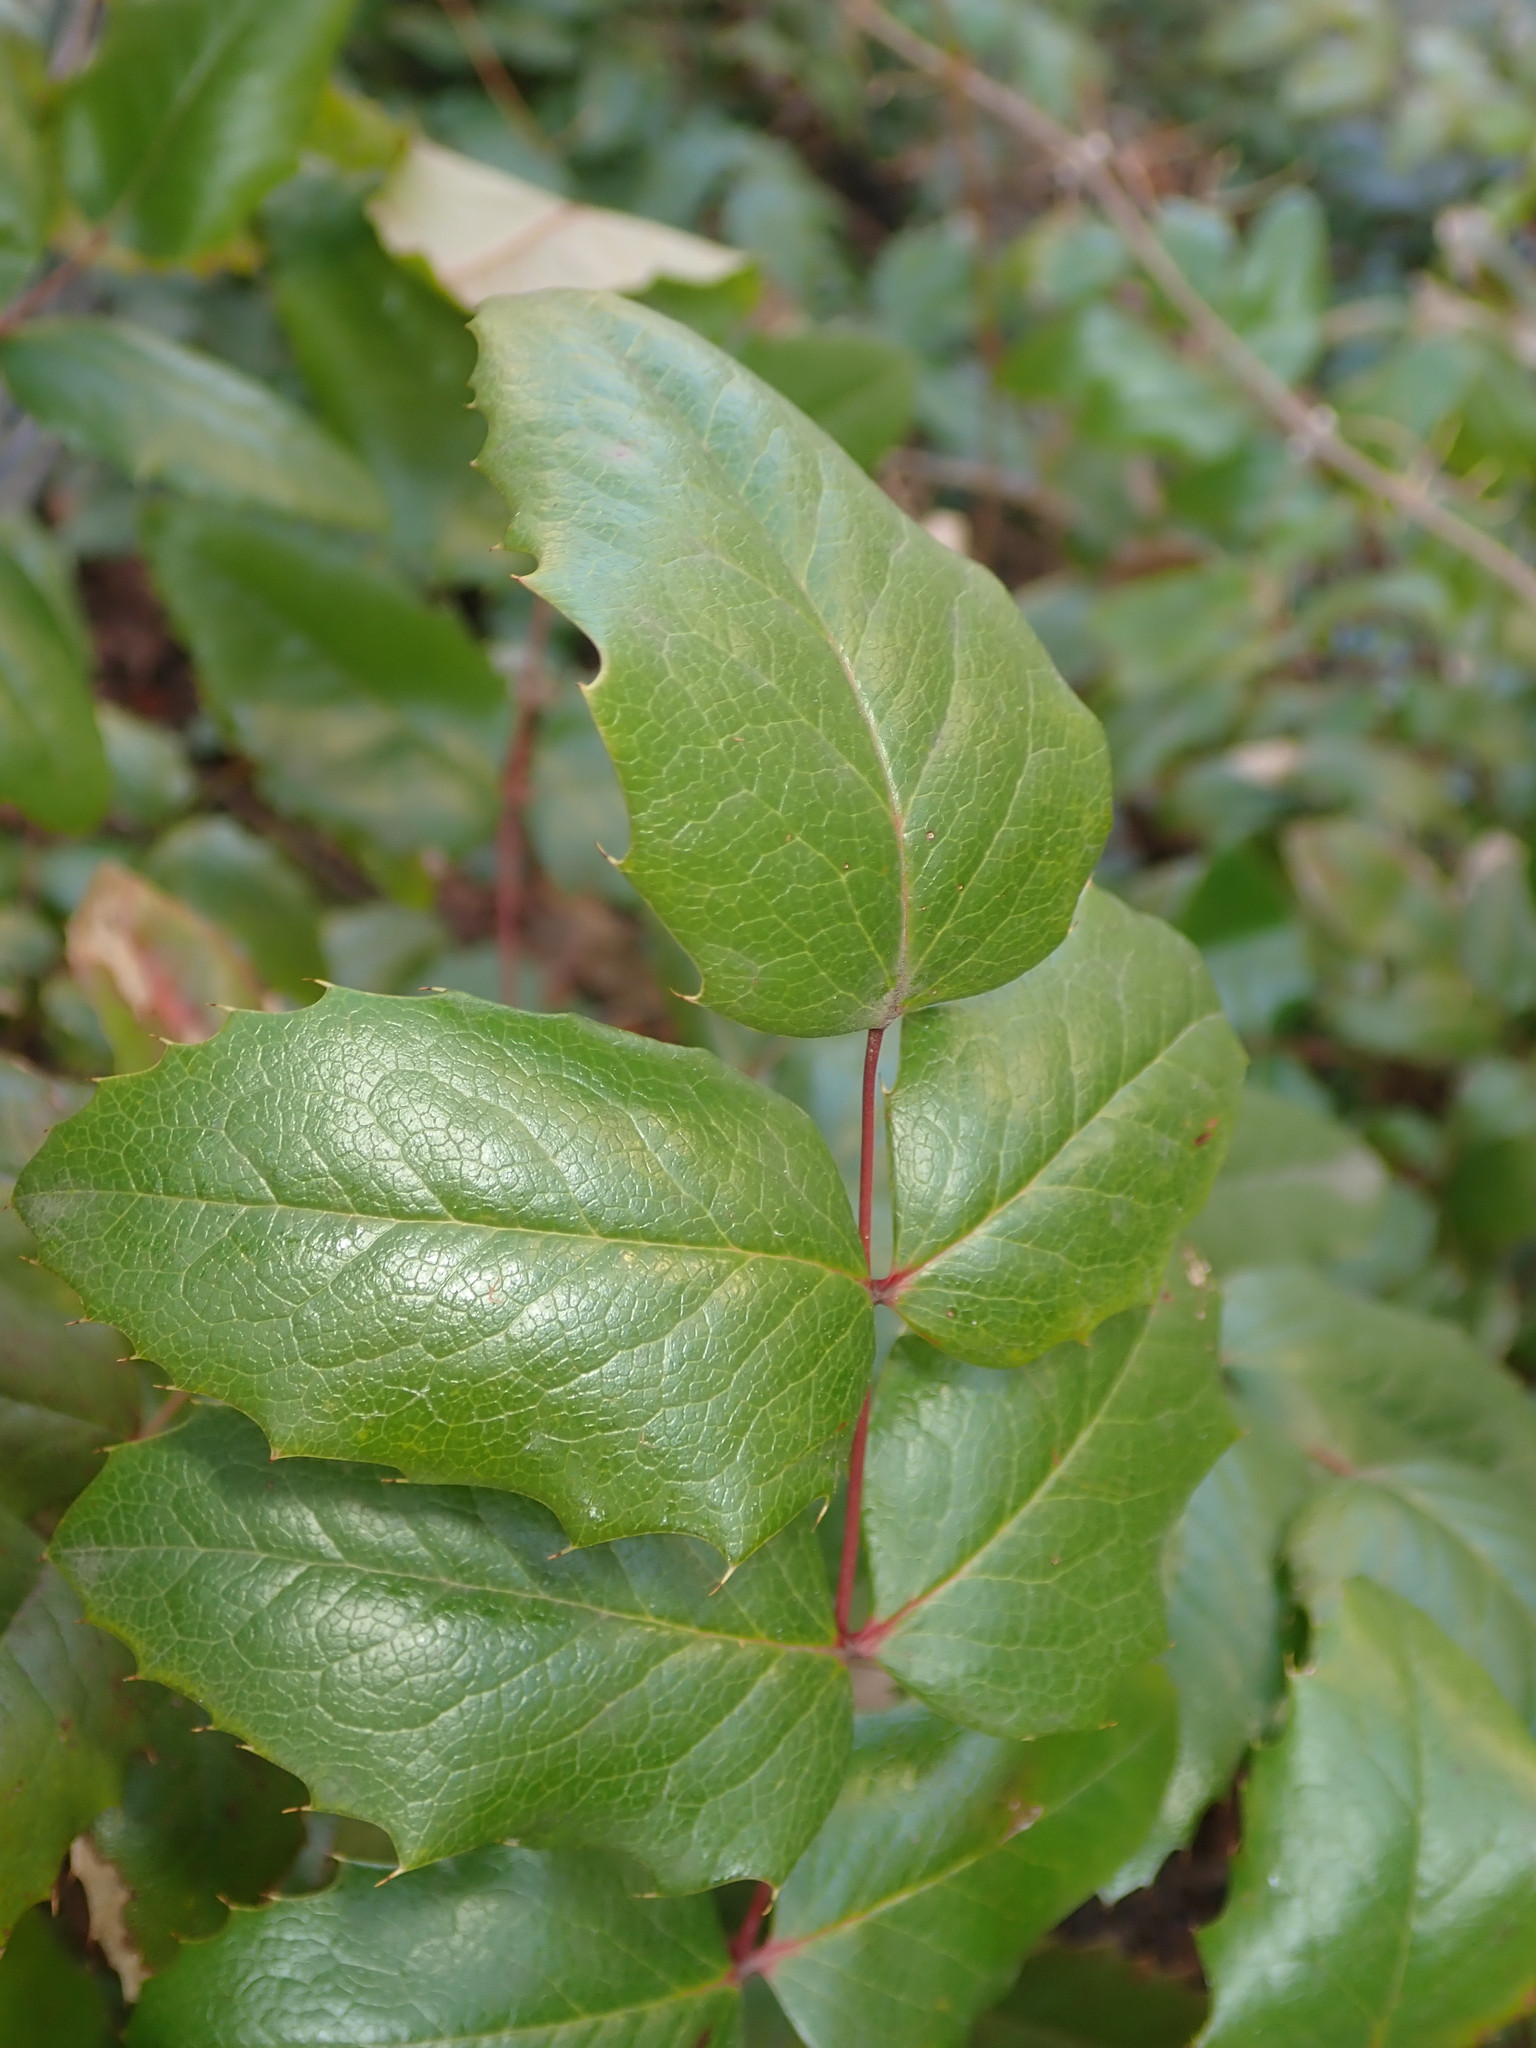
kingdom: Plantae
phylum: Tracheophyta
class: Magnoliopsida
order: Ranunculales
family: Berberidaceae
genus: Mahonia
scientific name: Mahonia aquifolium
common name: Oregon-grape
